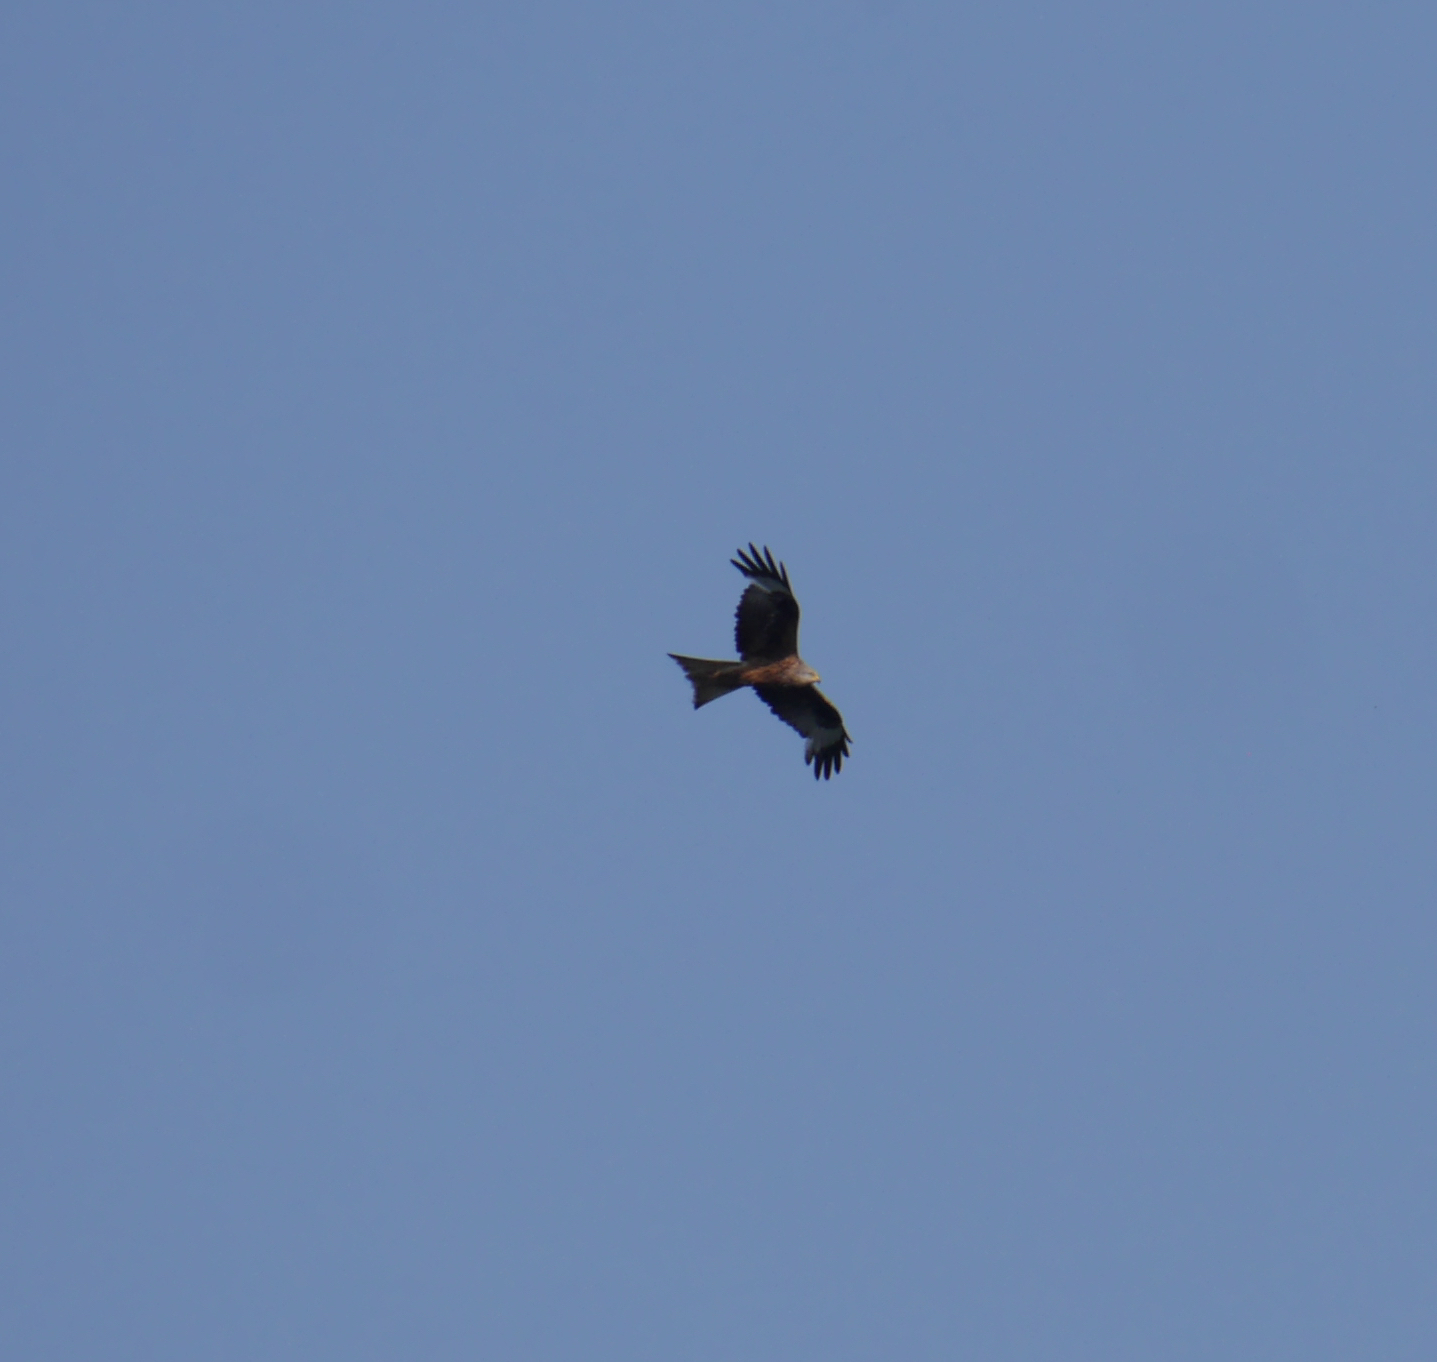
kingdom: Animalia
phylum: Chordata
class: Aves
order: Accipitriformes
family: Accipitridae
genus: Milvus
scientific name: Milvus migrans
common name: Black kite
